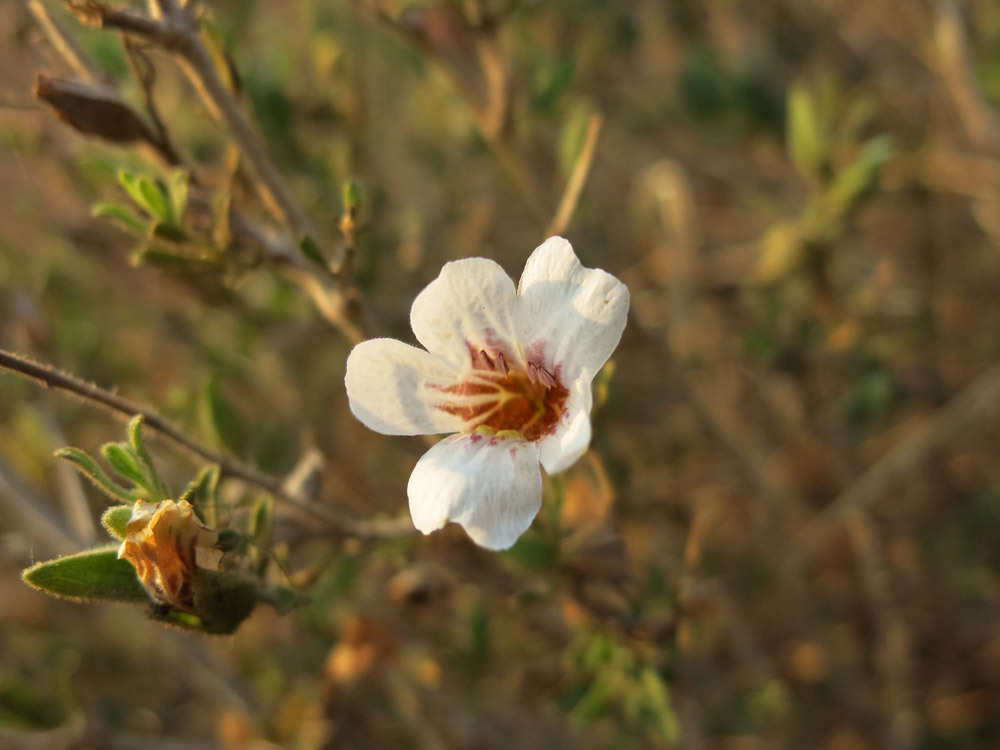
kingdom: Plantae
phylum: Tracheophyta
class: Magnoliopsida
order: Lamiales
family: Acanthaceae
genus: Petalidium
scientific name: Petalidium aromaticum
